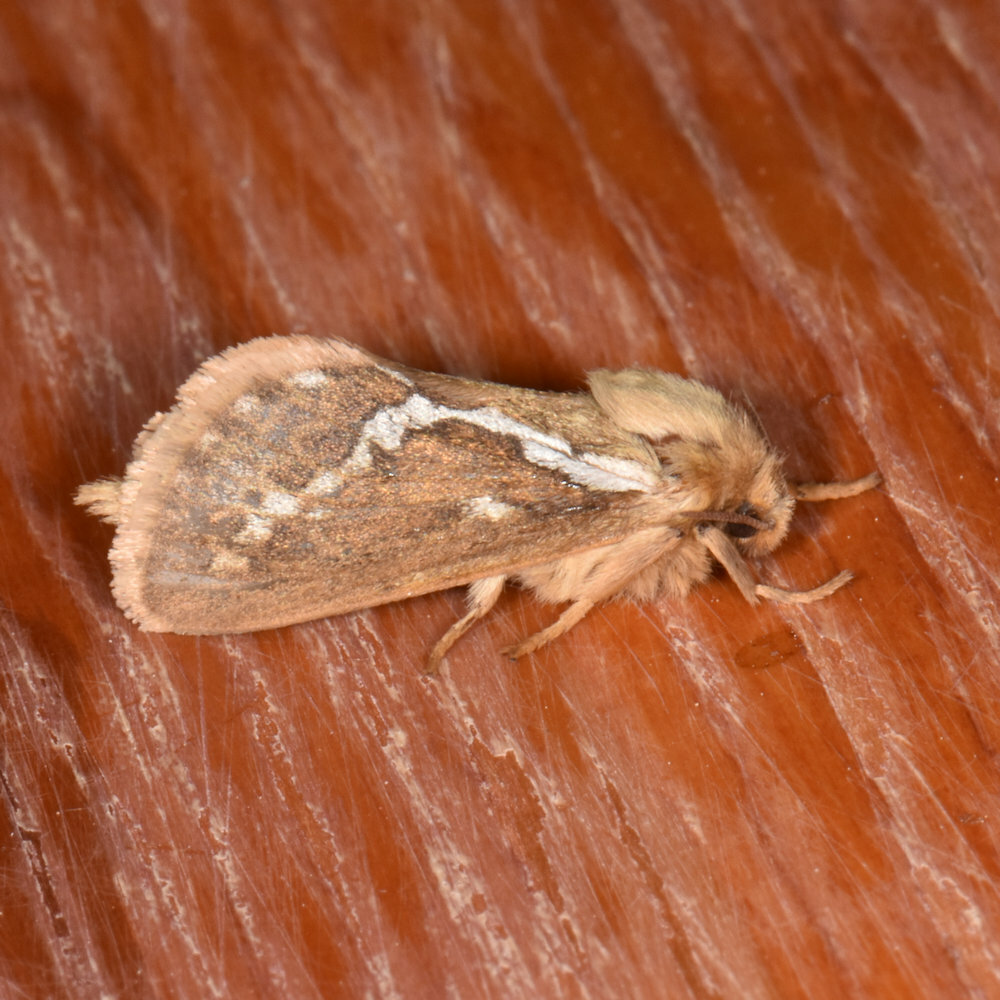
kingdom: Animalia
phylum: Arthropoda
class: Insecta
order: Lepidoptera
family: Hepialidae
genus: Korscheltellus
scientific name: Korscheltellus lupulina
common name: Common swift
